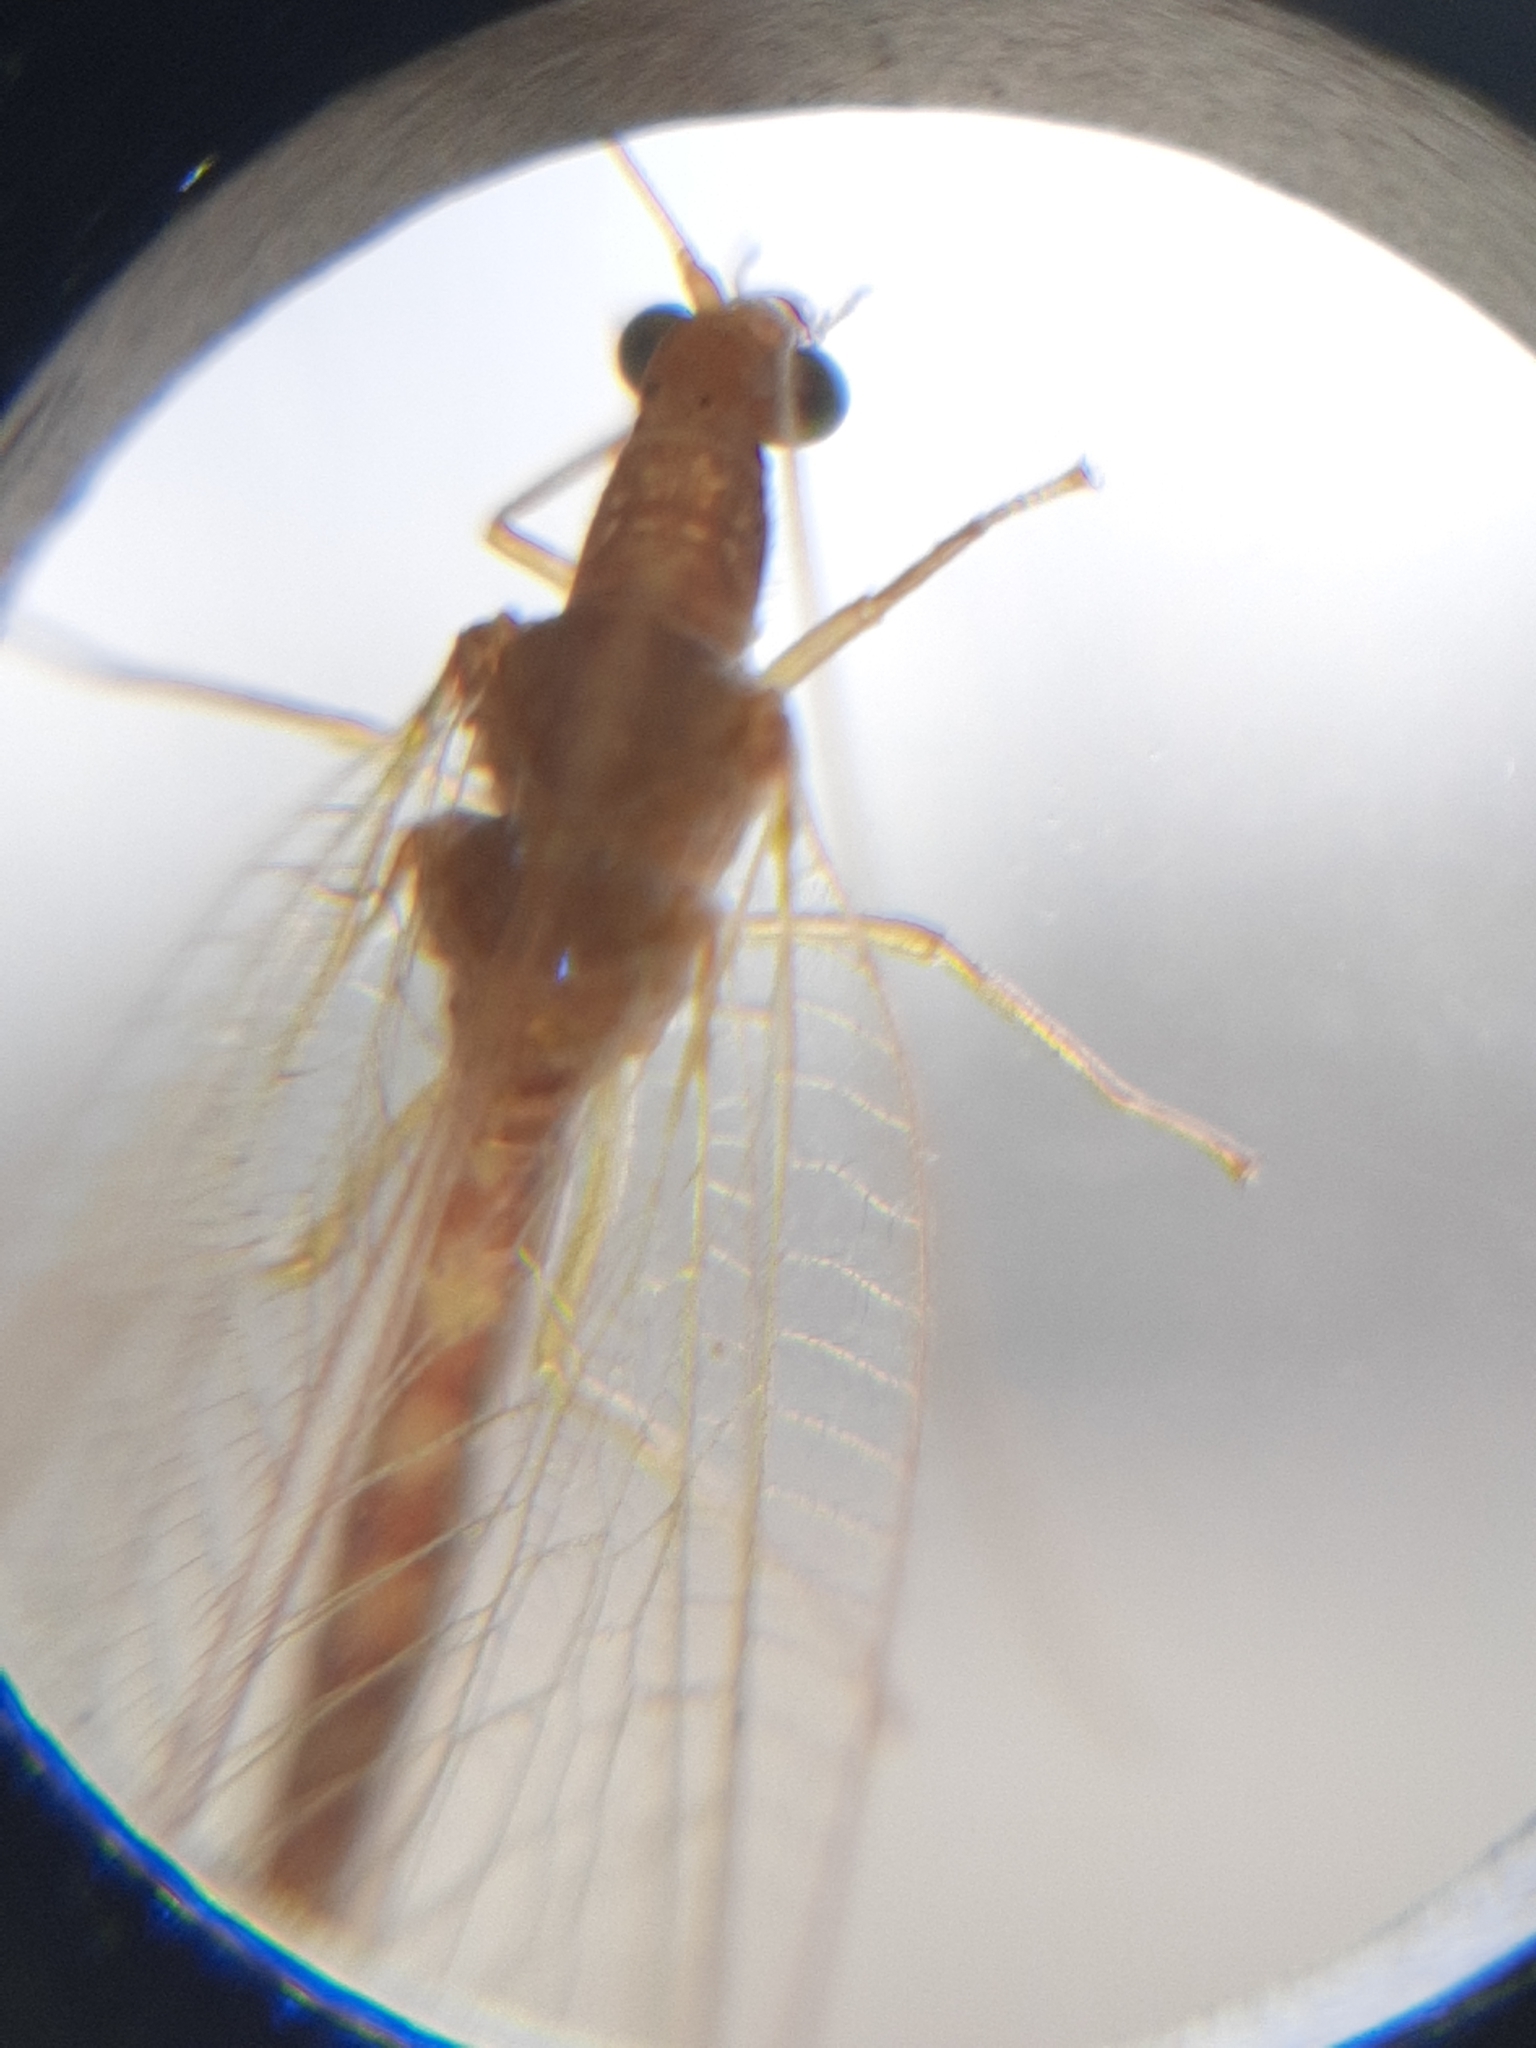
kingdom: Animalia
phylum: Arthropoda
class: Insecta
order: Neuroptera
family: Chrysopidae
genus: Chrysoperla
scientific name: Chrysoperla
